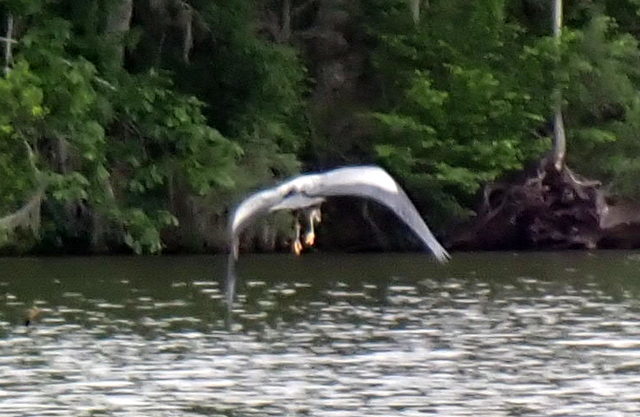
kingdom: Animalia
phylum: Chordata
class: Aves
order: Pelecaniformes
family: Ardeidae
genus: Ardea
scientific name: Ardea herodias
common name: Great blue heron
